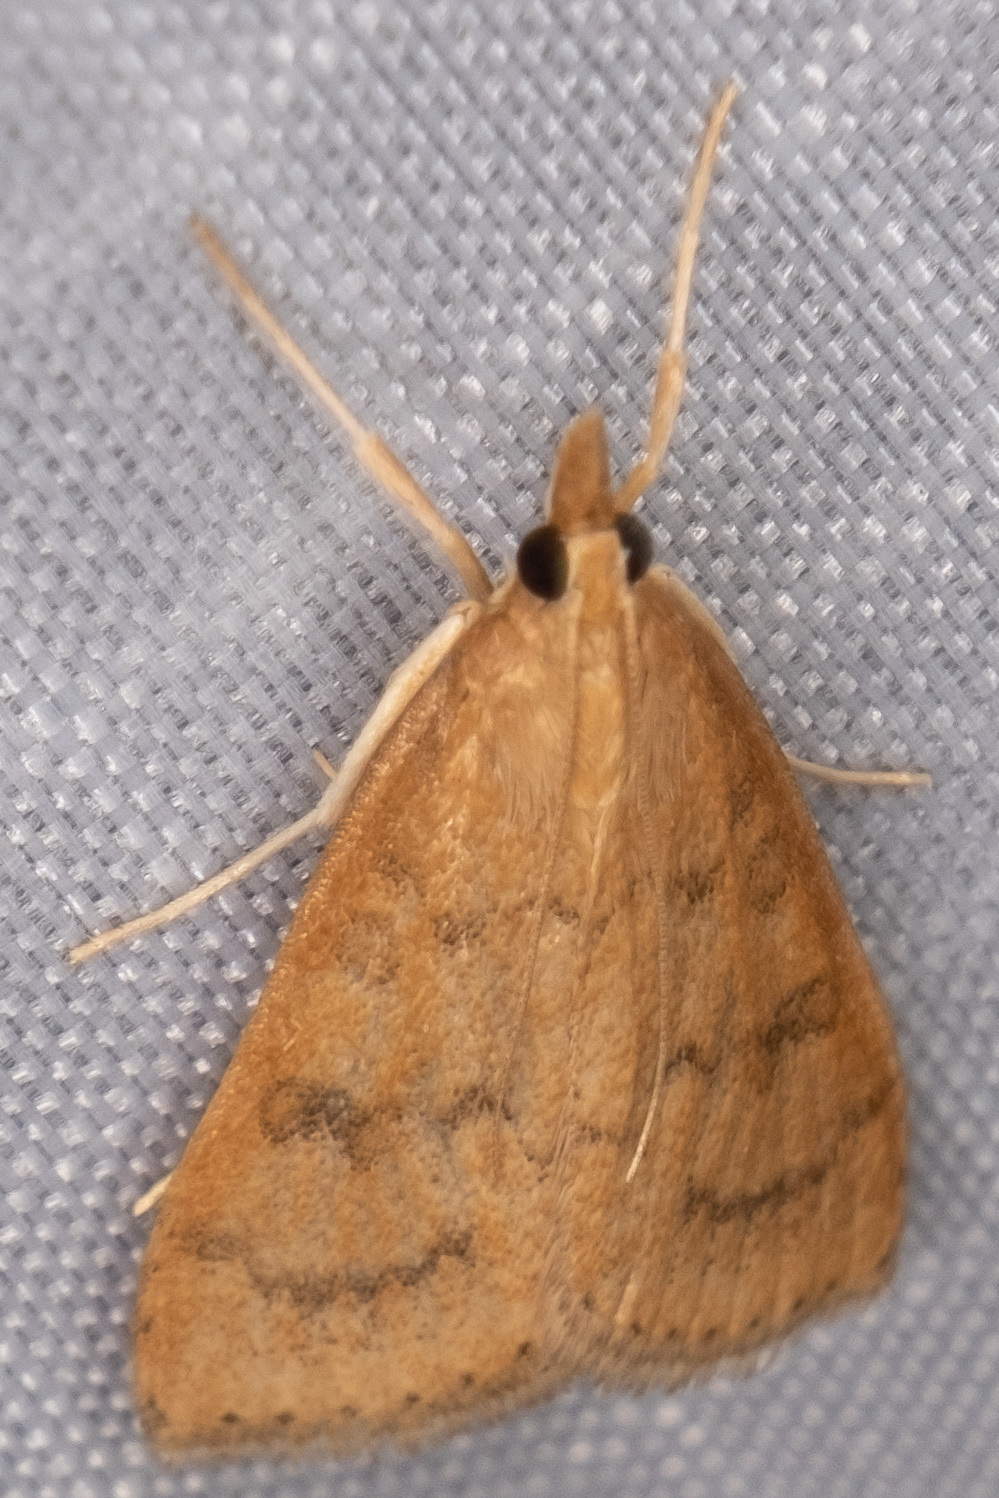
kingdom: Animalia
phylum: Arthropoda
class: Insecta
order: Lepidoptera
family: Crambidae
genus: Udea
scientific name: Udea rubigalis
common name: Celery leaftier moth
